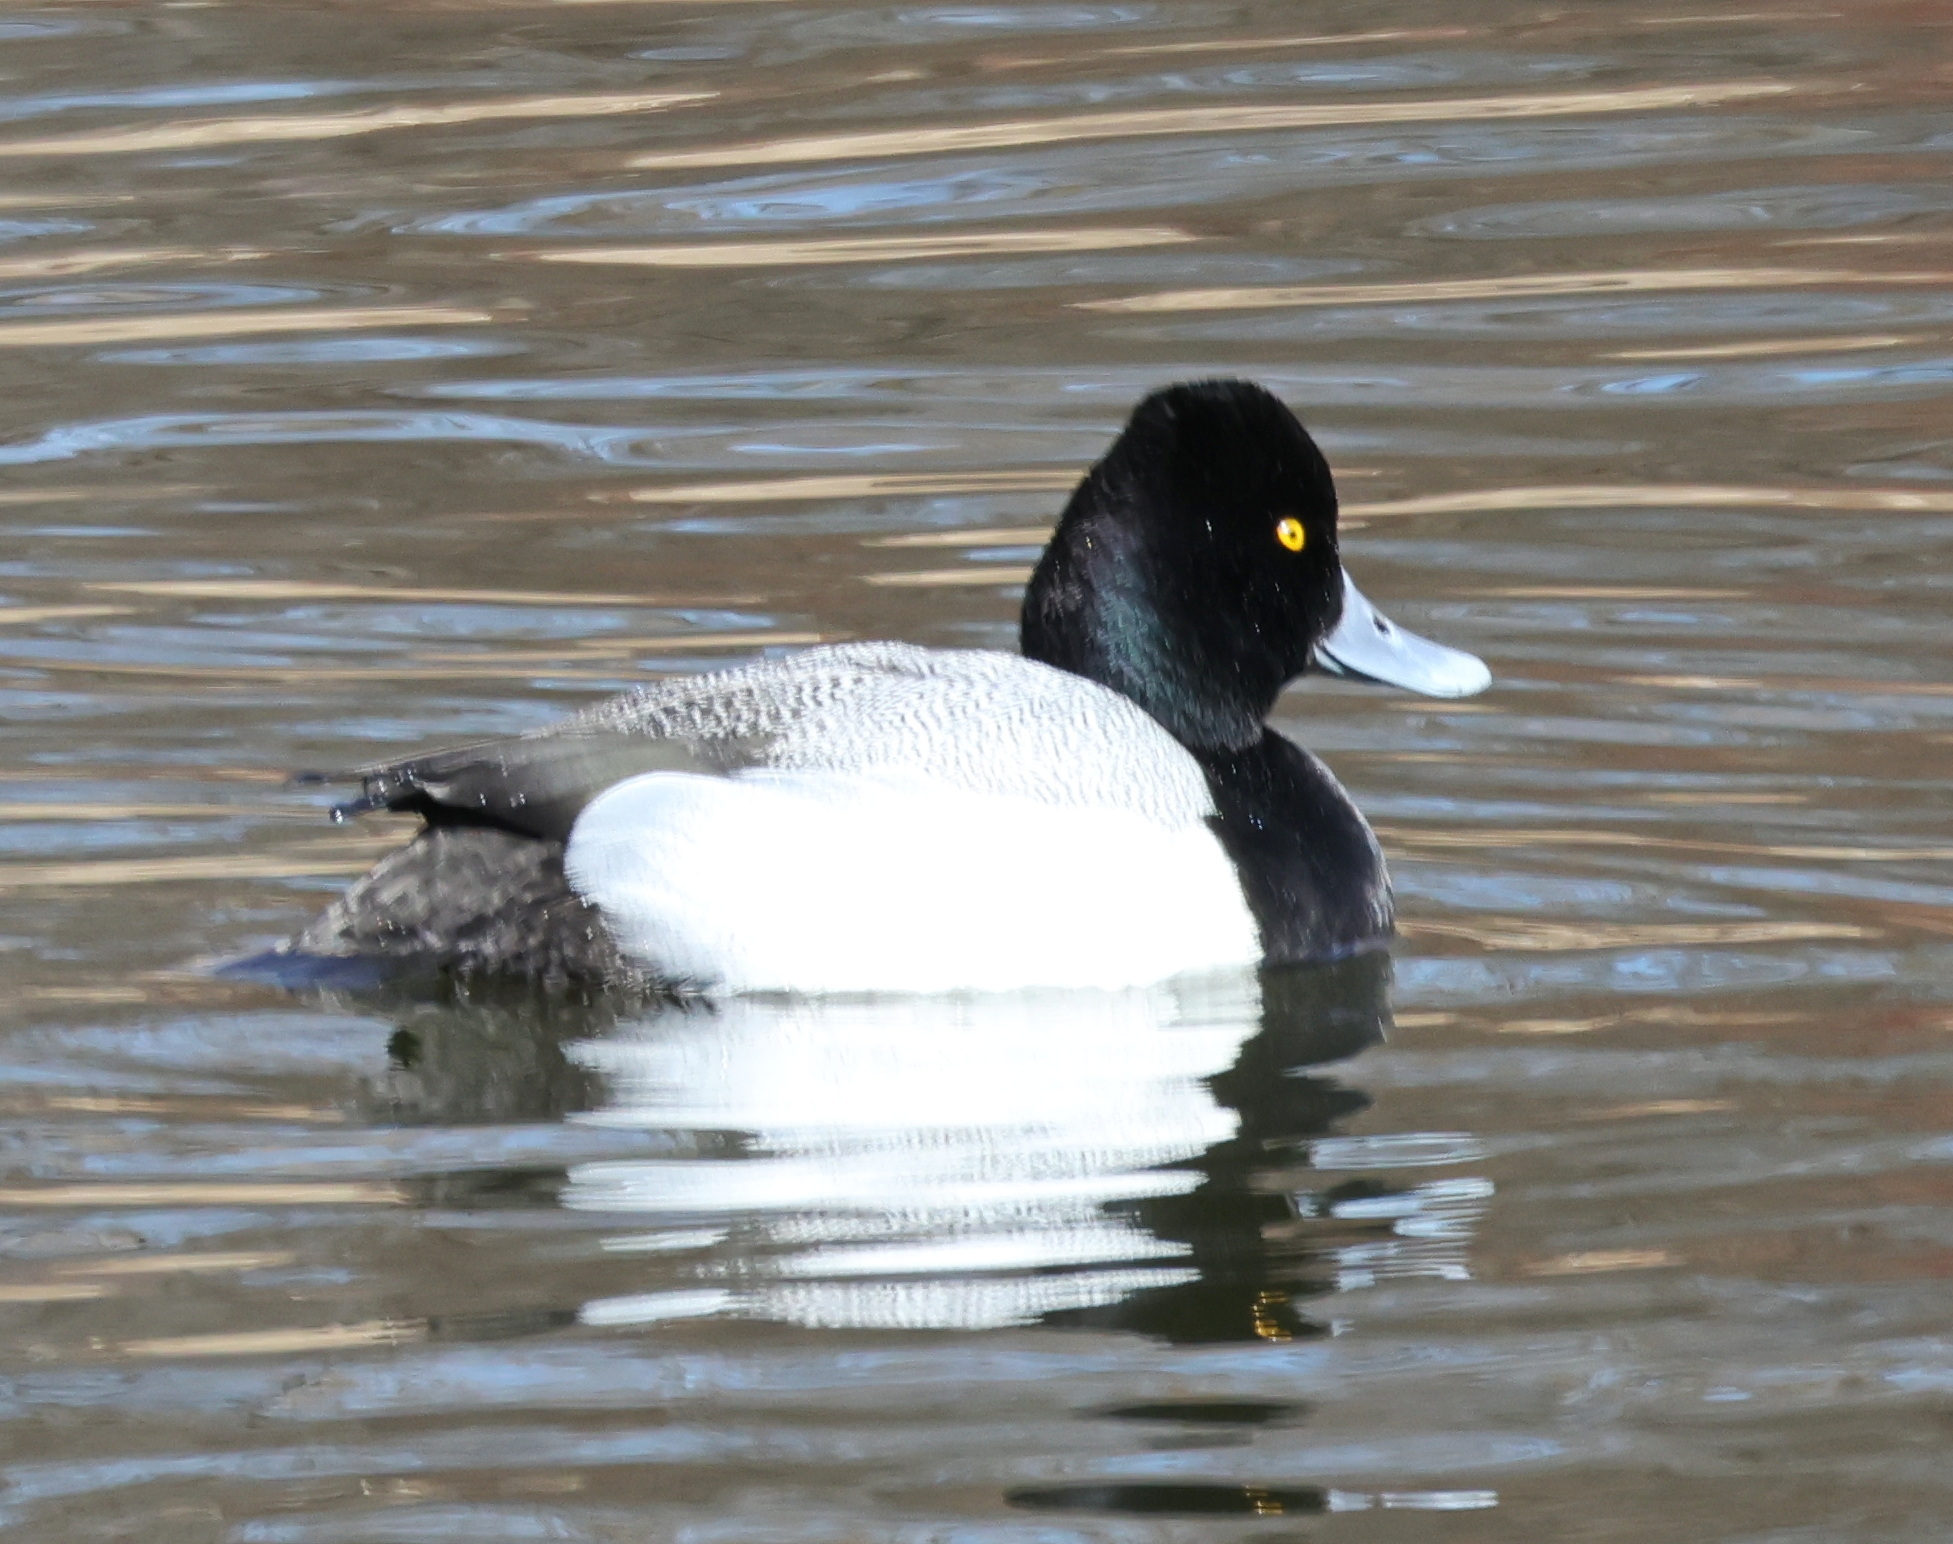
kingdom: Animalia
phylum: Chordata
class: Aves
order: Anseriformes
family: Anatidae
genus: Aythya
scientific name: Aythya affinis
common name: Lesser scaup
